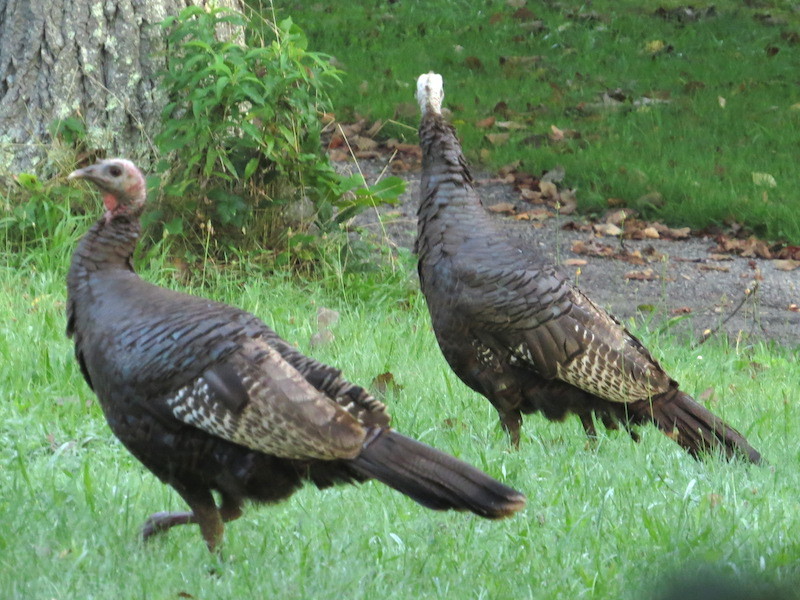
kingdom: Animalia
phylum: Chordata
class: Aves
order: Galliformes
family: Phasianidae
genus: Meleagris
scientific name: Meleagris gallopavo
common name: Wild turkey
